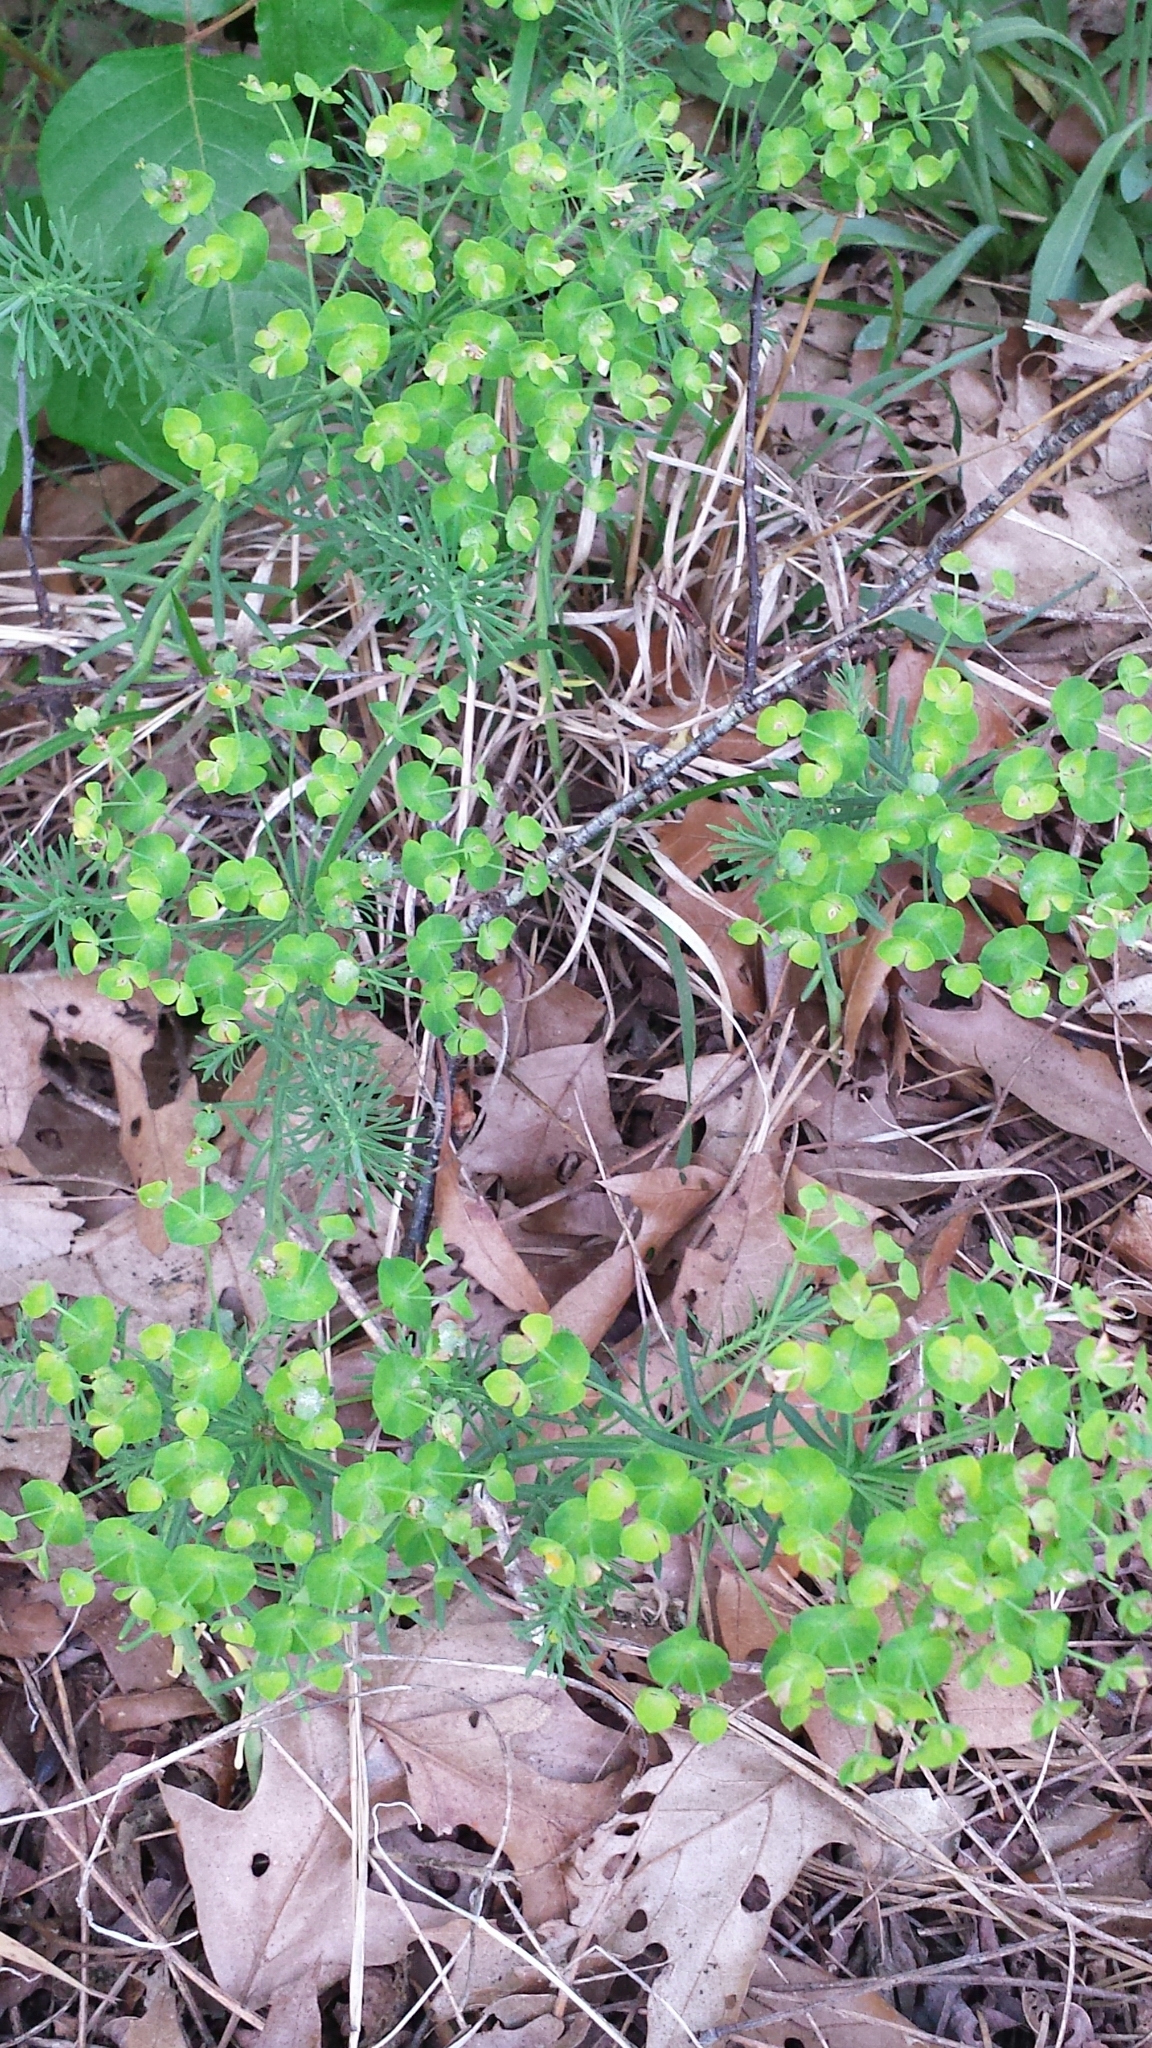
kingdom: Plantae
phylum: Tracheophyta
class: Magnoliopsida
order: Malpighiales
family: Euphorbiaceae
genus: Euphorbia
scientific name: Euphorbia cyparissias
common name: Cypress spurge
